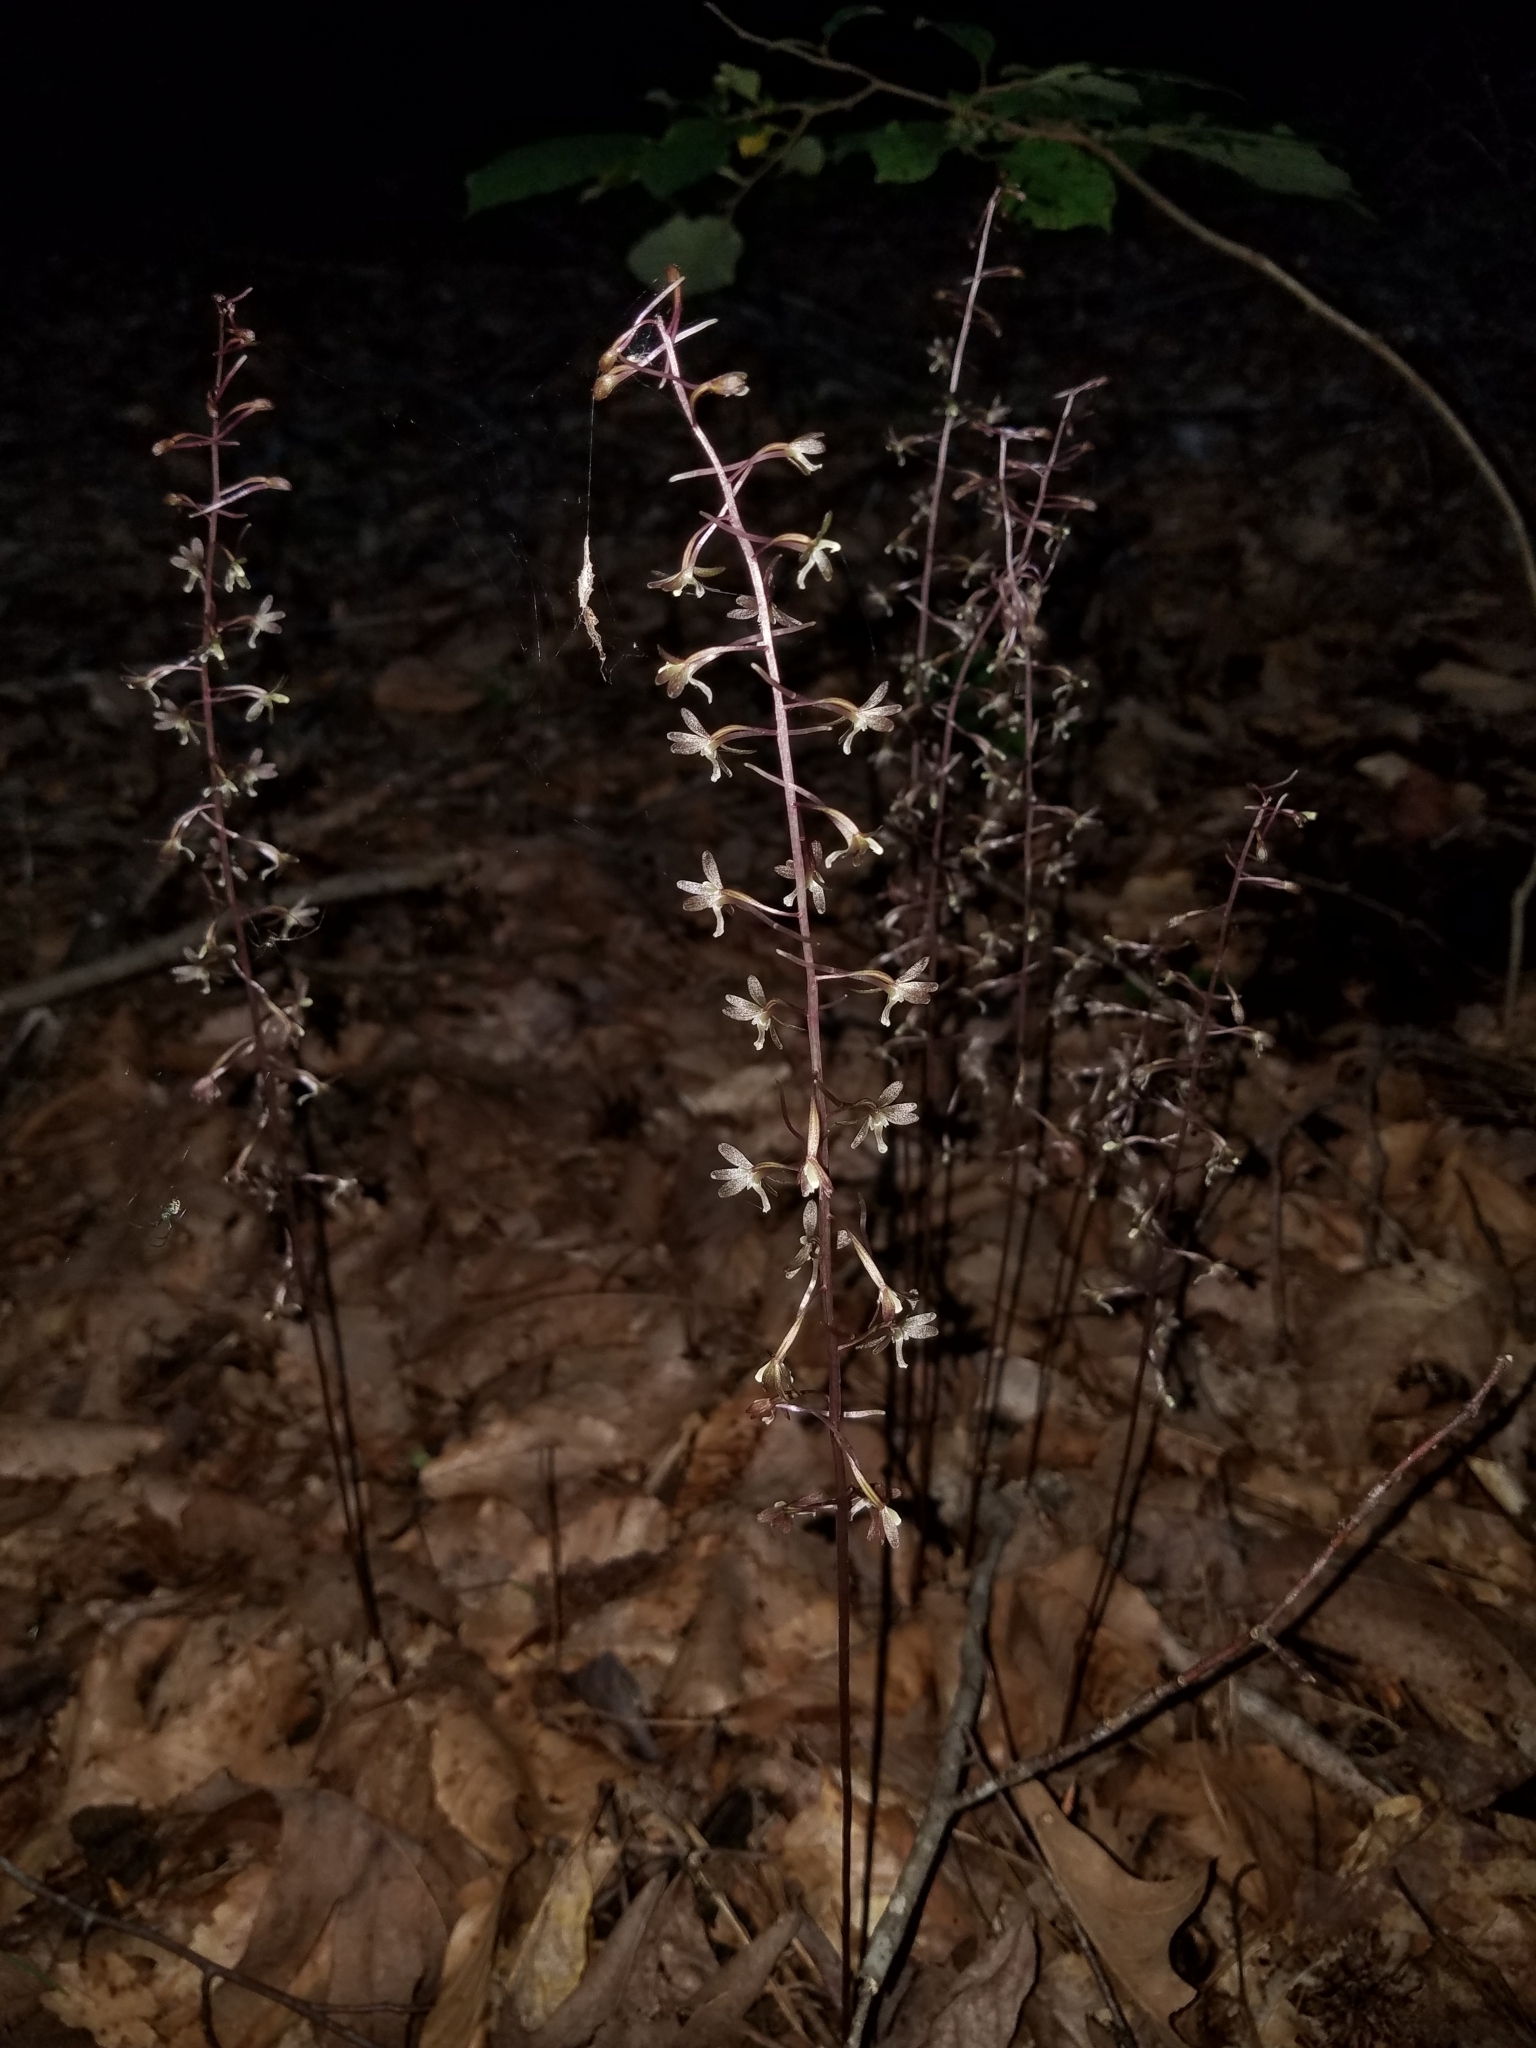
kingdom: Plantae
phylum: Tracheophyta
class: Liliopsida
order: Asparagales
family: Orchidaceae
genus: Tipularia
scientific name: Tipularia discolor
